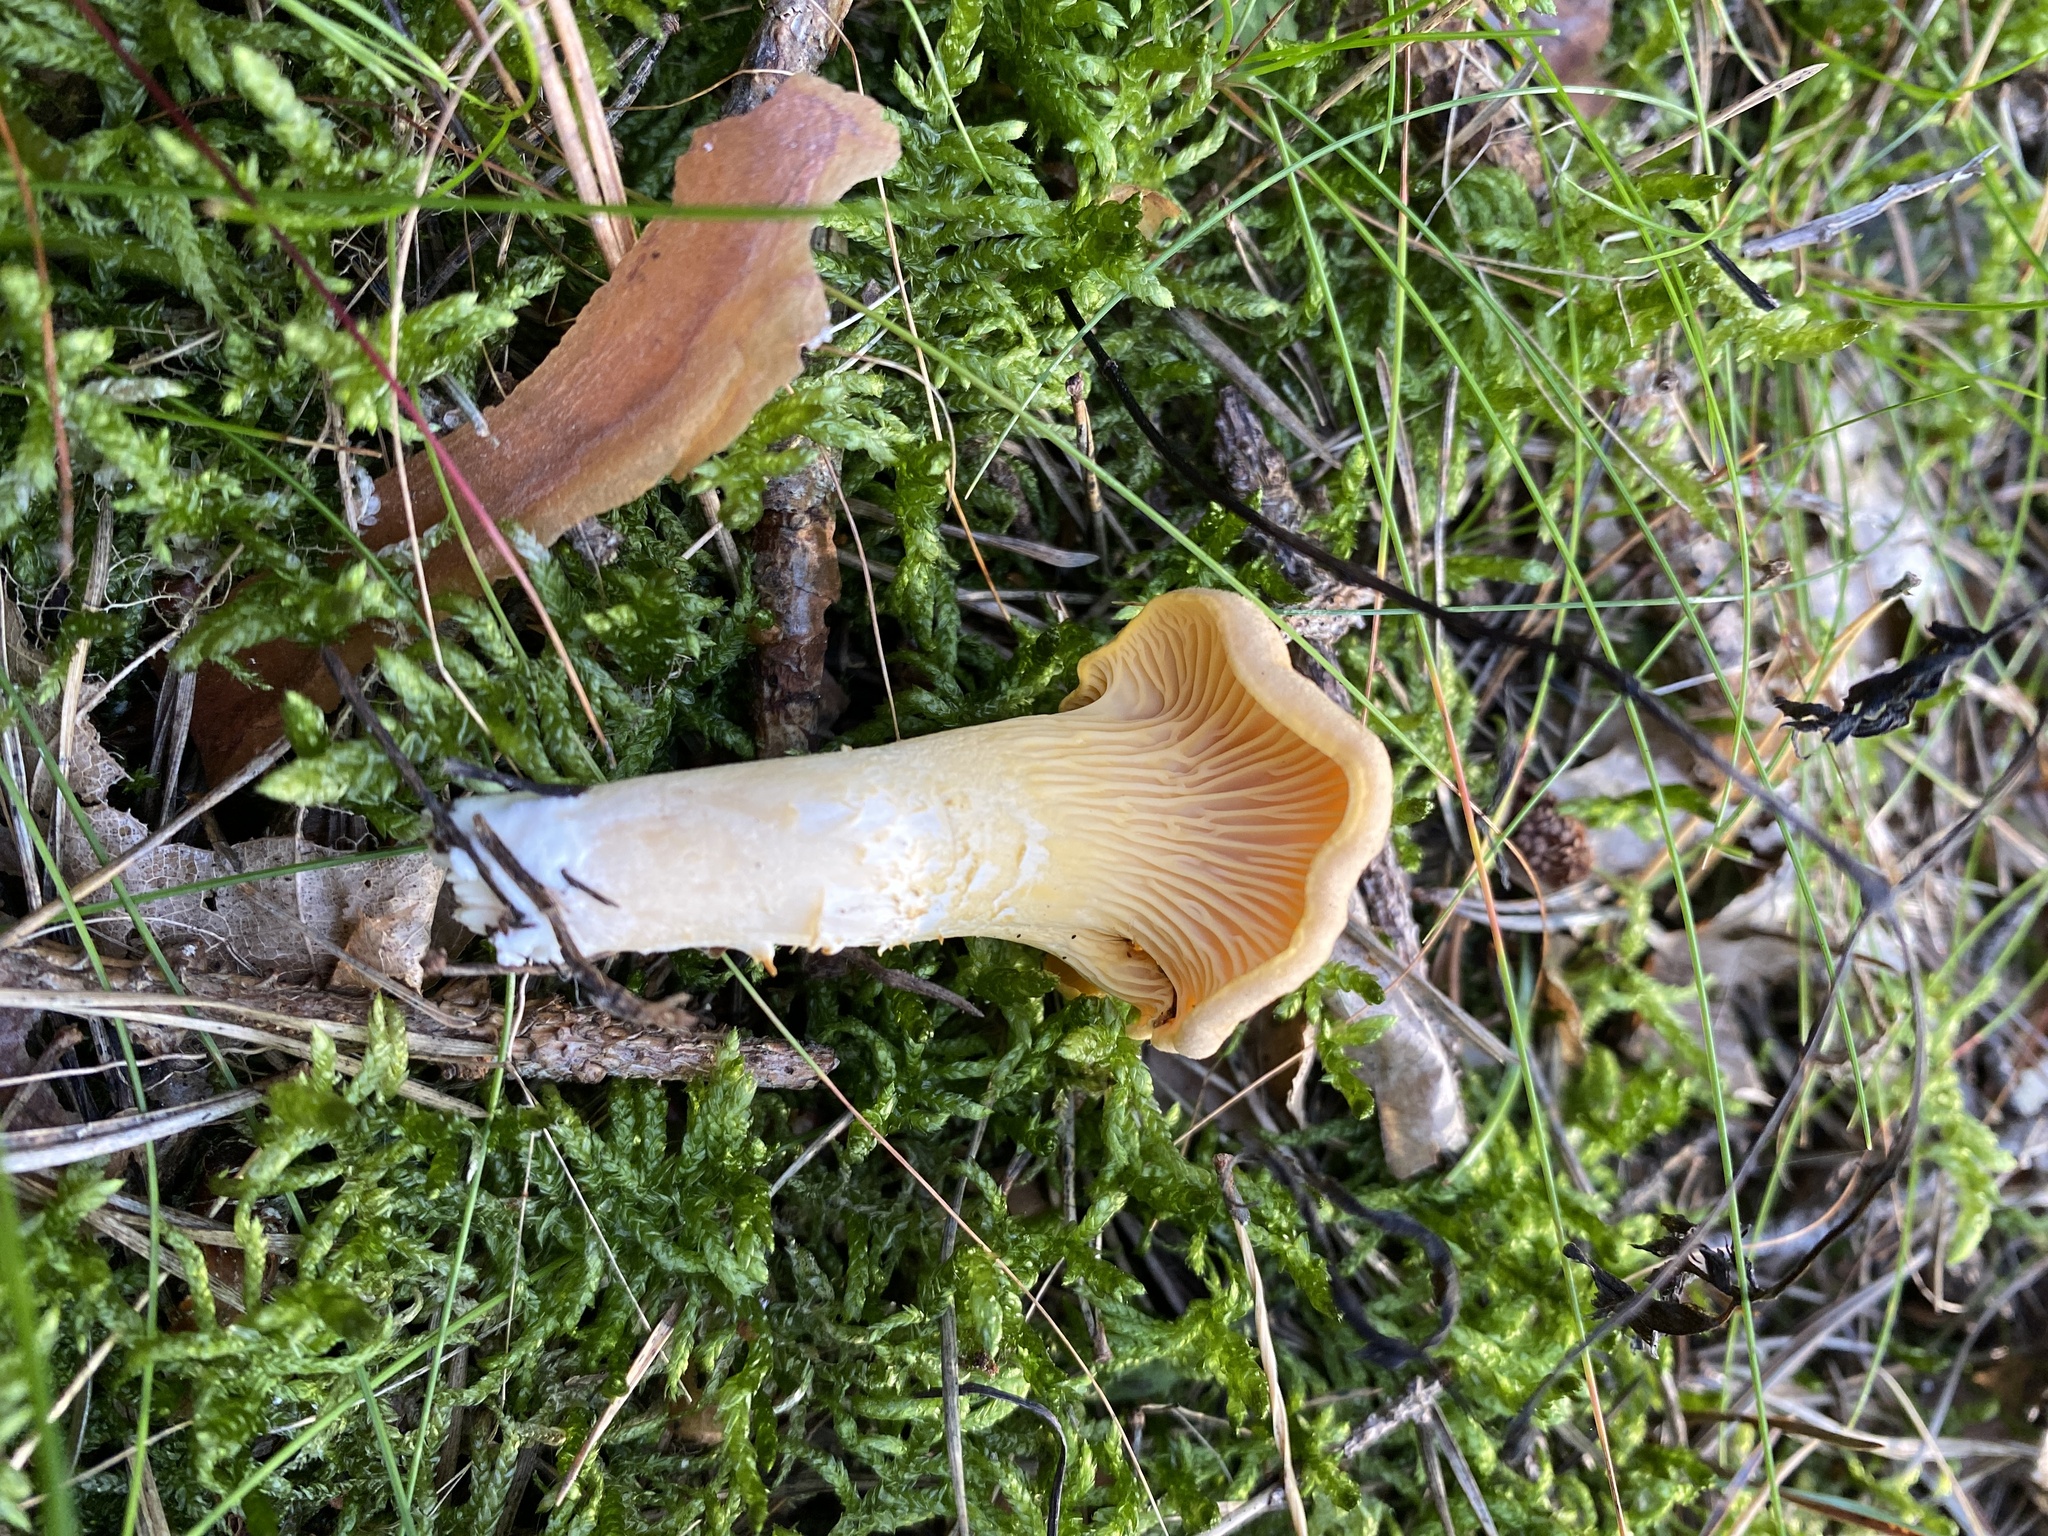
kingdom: Fungi
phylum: Basidiomycota
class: Agaricomycetes
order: Cantharellales
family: Hydnaceae
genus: Cantharellus
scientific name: Cantharellus cibarius
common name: Chanterelle
